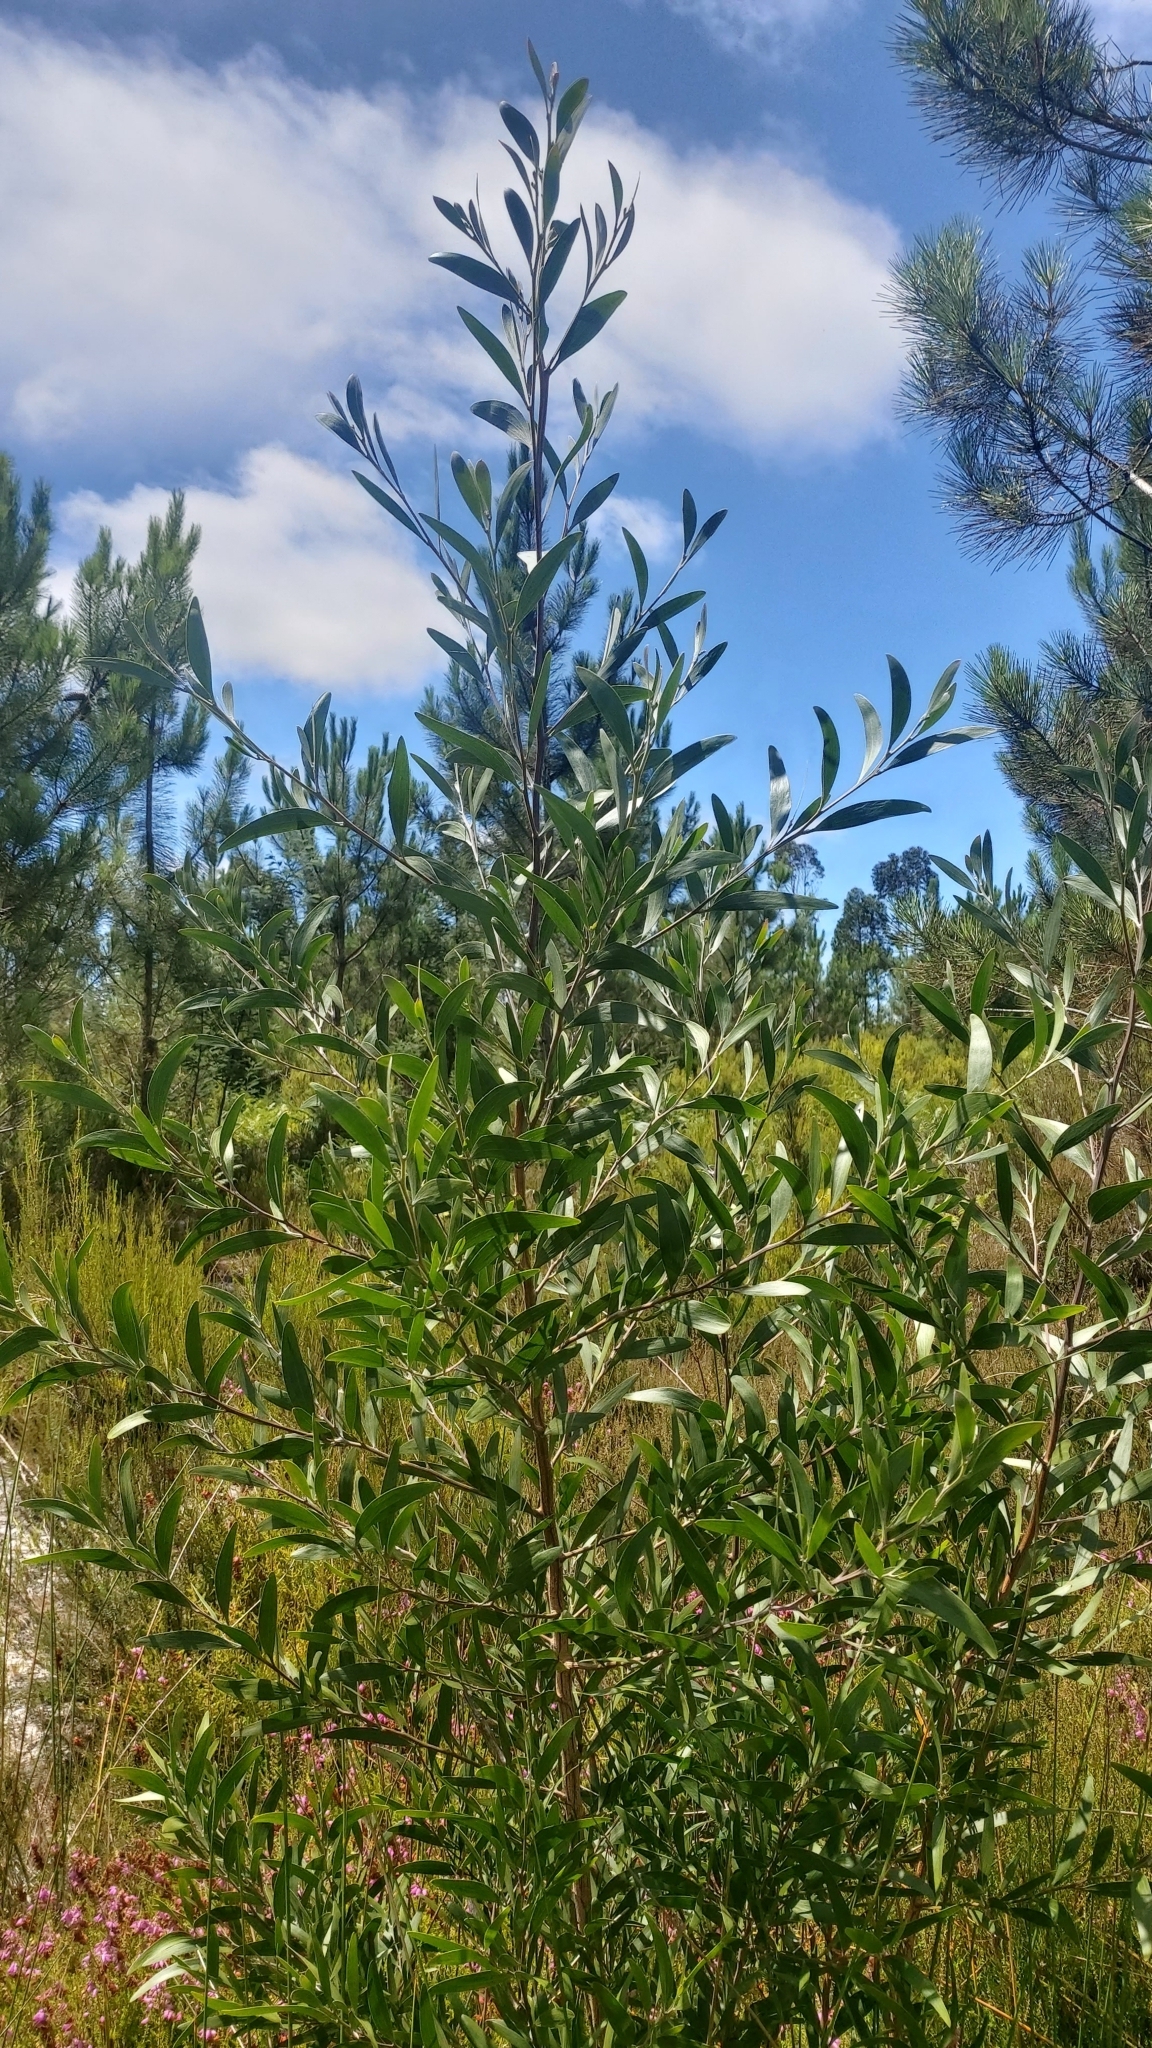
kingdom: Plantae
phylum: Tracheophyta
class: Magnoliopsida
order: Fabales
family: Fabaceae
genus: Acacia
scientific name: Acacia melanoxylon
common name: Blackwood
